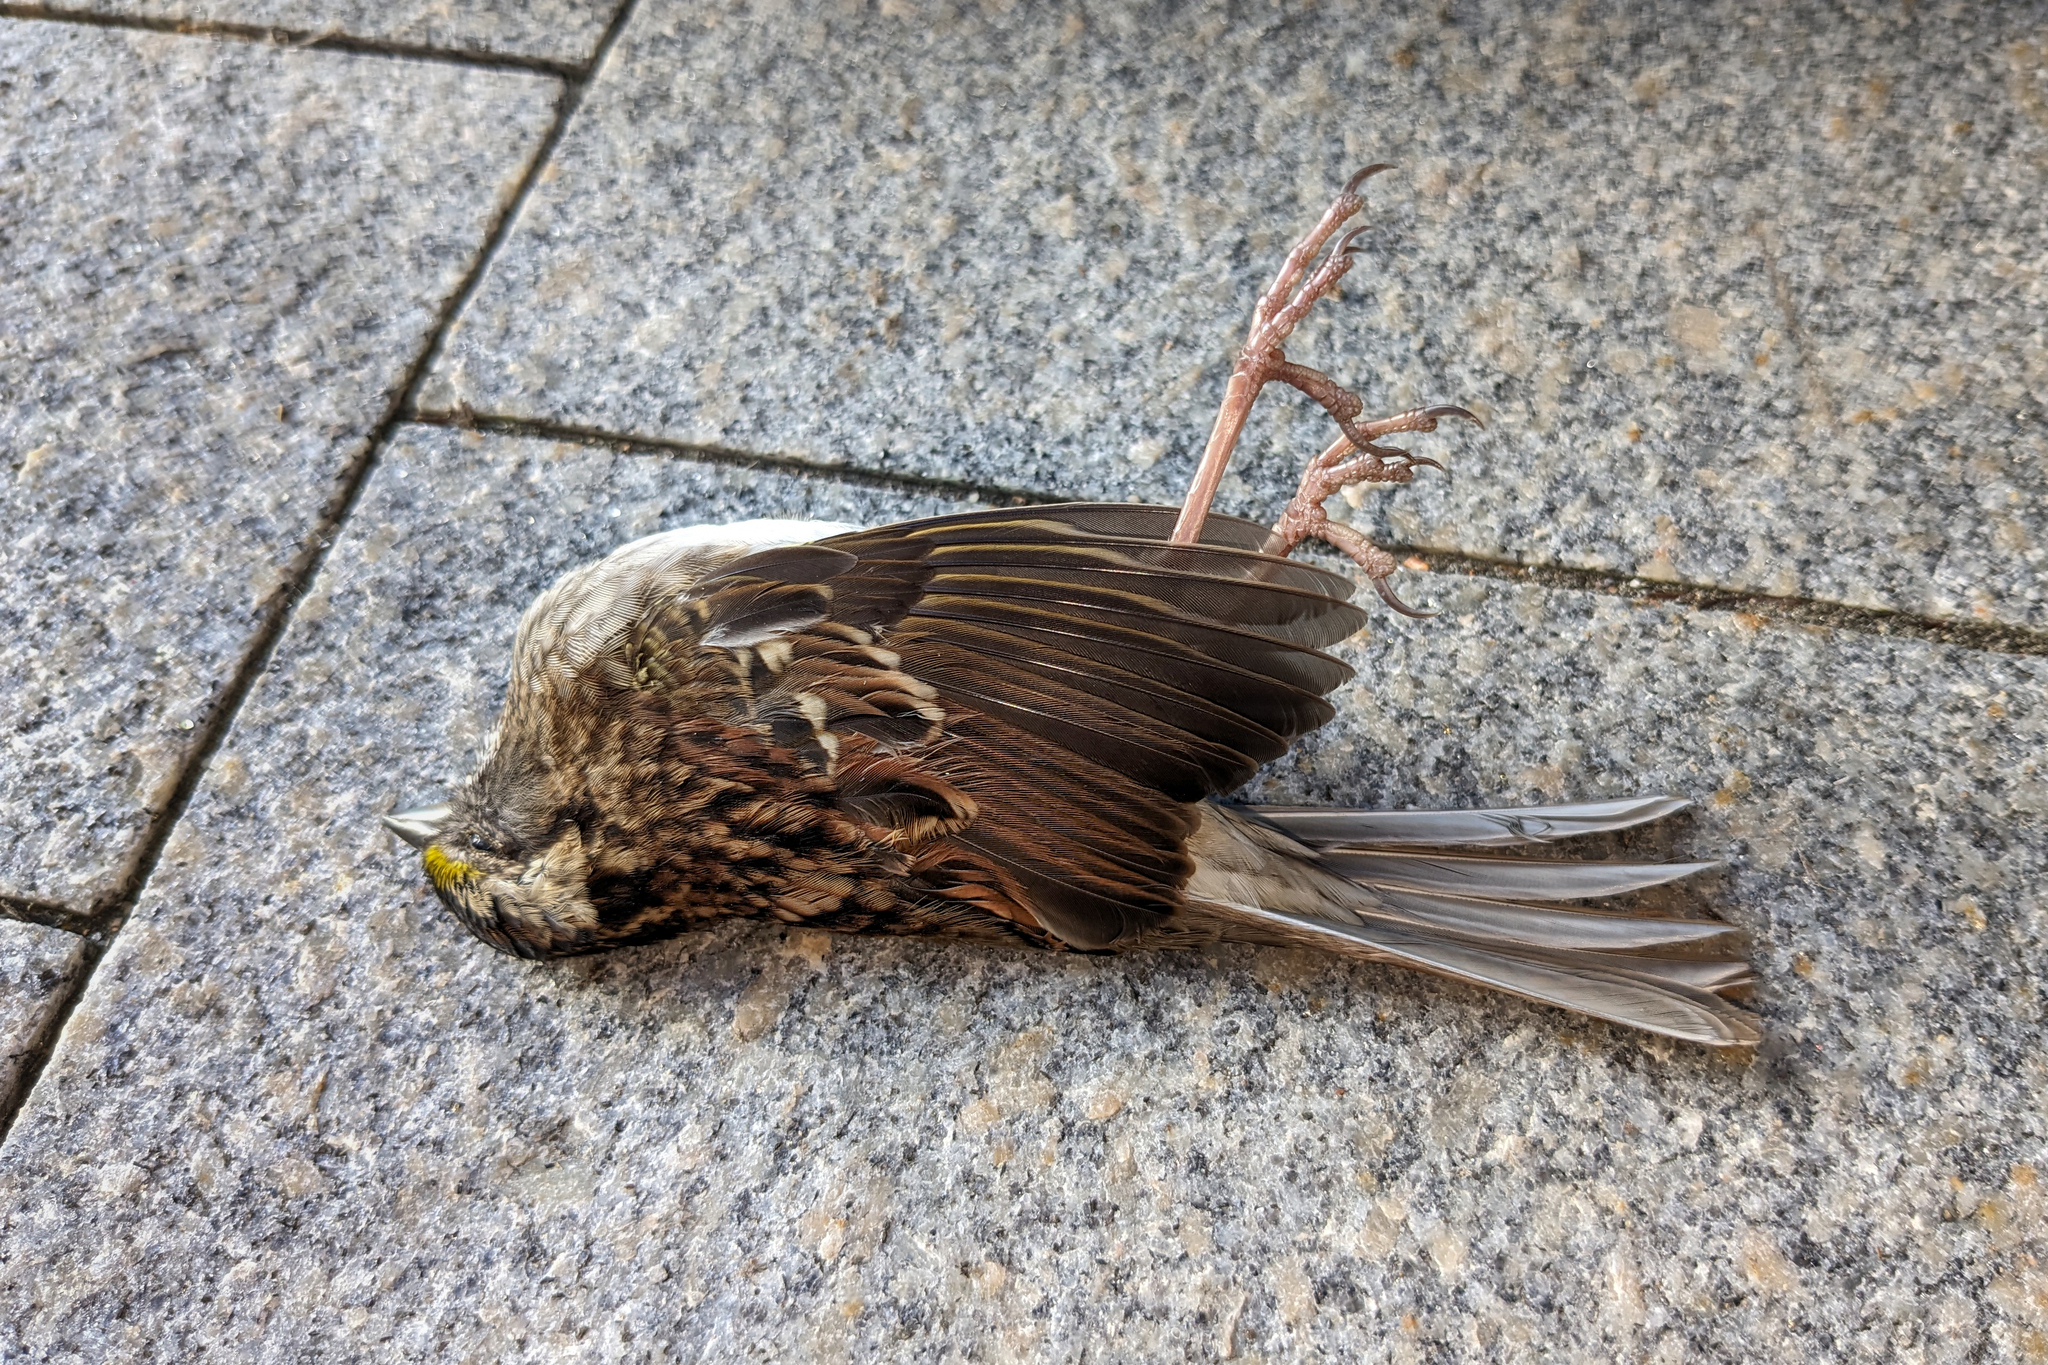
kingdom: Animalia
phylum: Chordata
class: Aves
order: Passeriformes
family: Passerellidae
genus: Zonotrichia
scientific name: Zonotrichia albicollis
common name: White-throated sparrow
